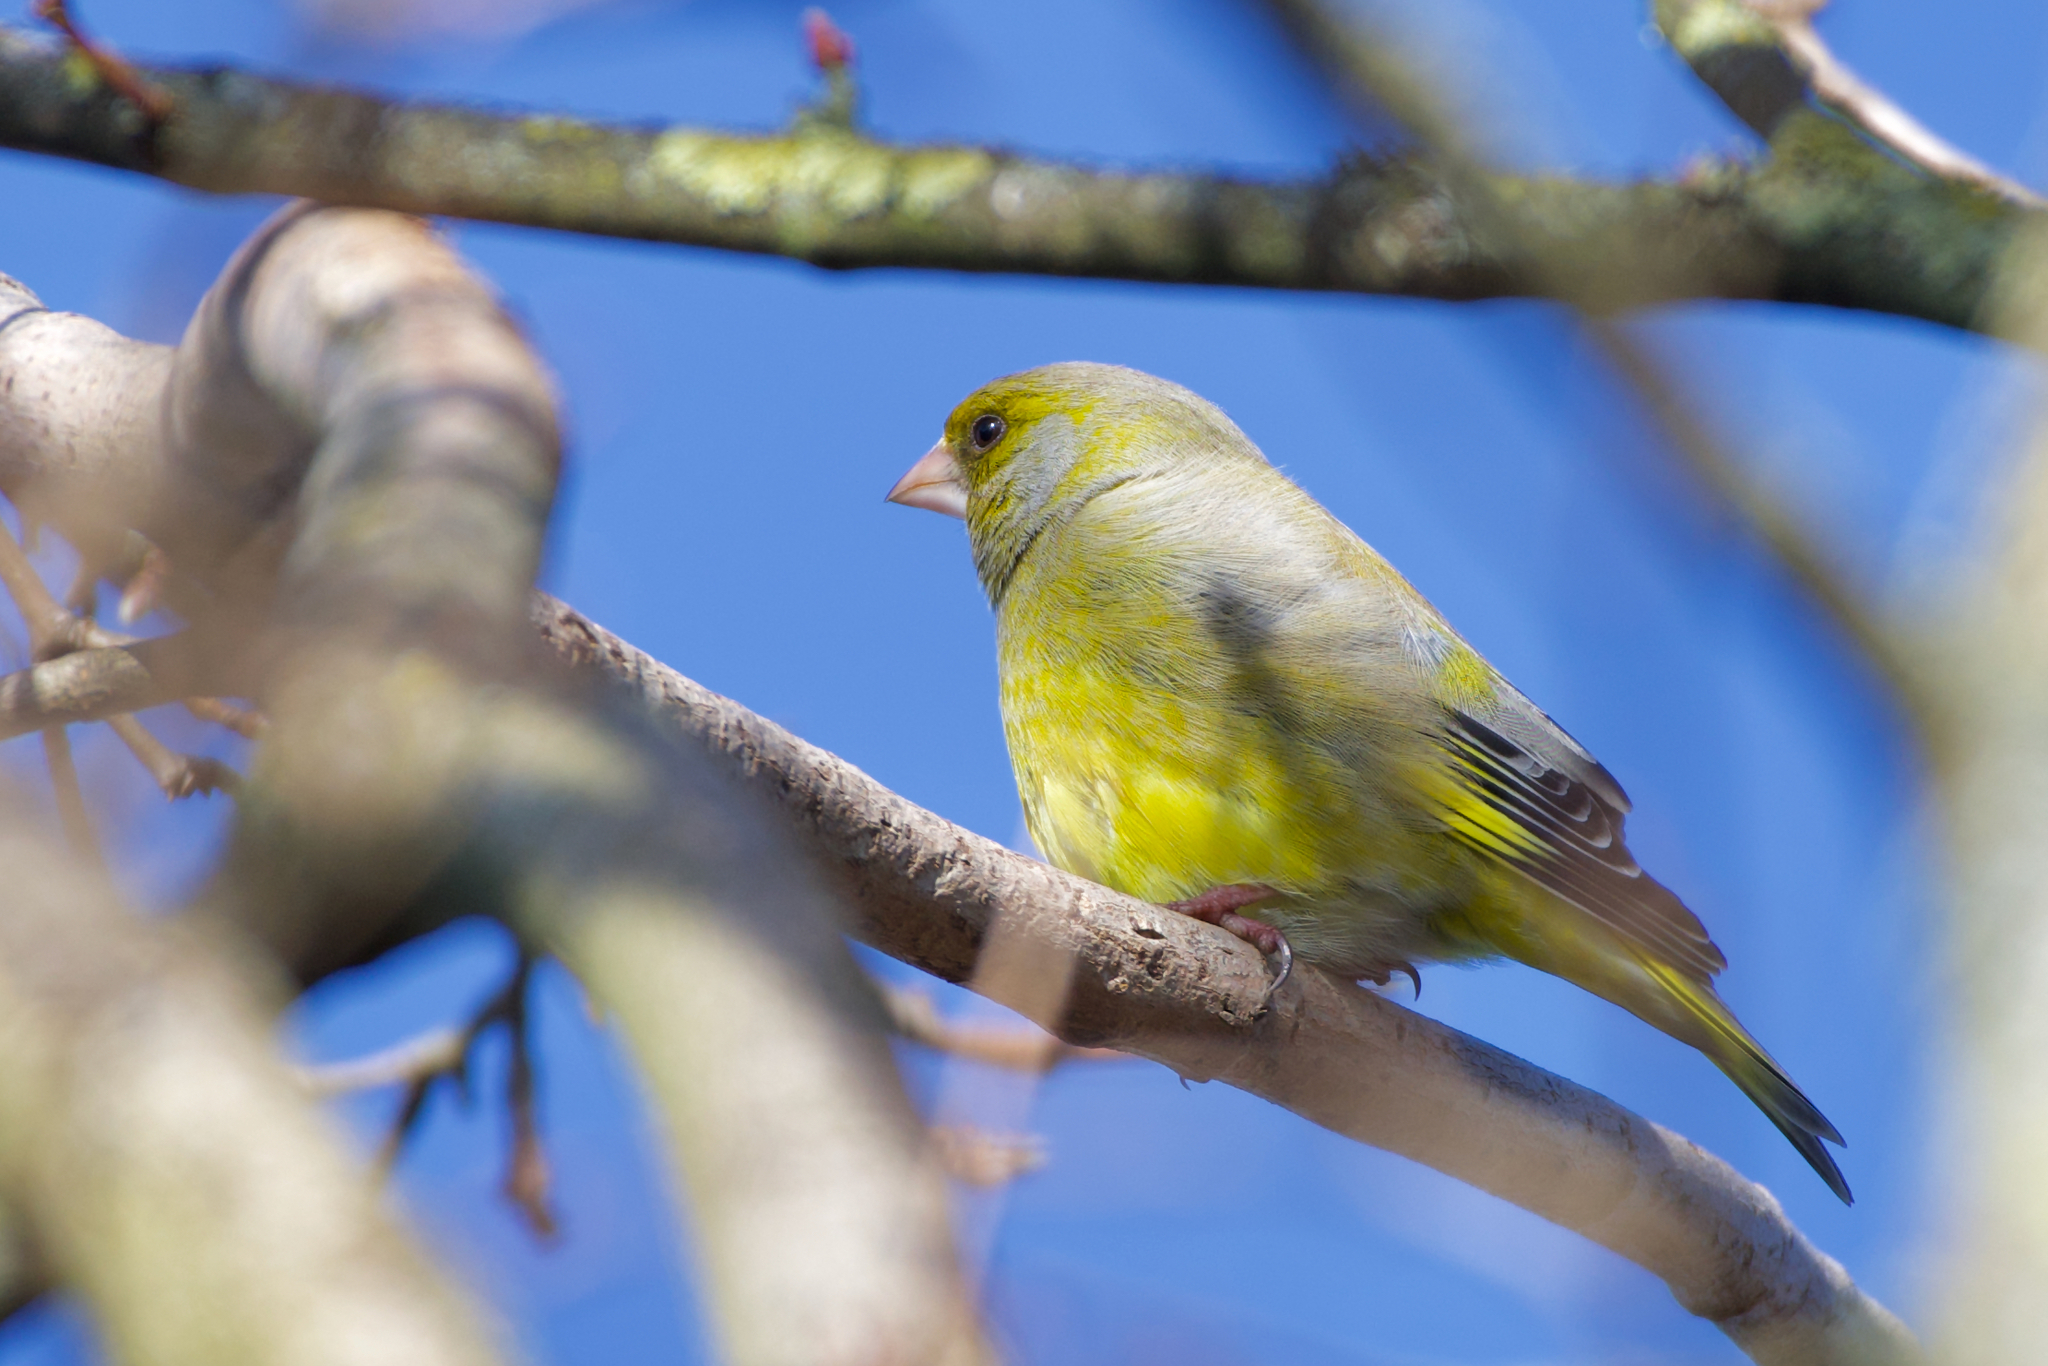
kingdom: Plantae
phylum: Tracheophyta
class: Liliopsida
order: Poales
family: Poaceae
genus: Chloris
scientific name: Chloris chloris
